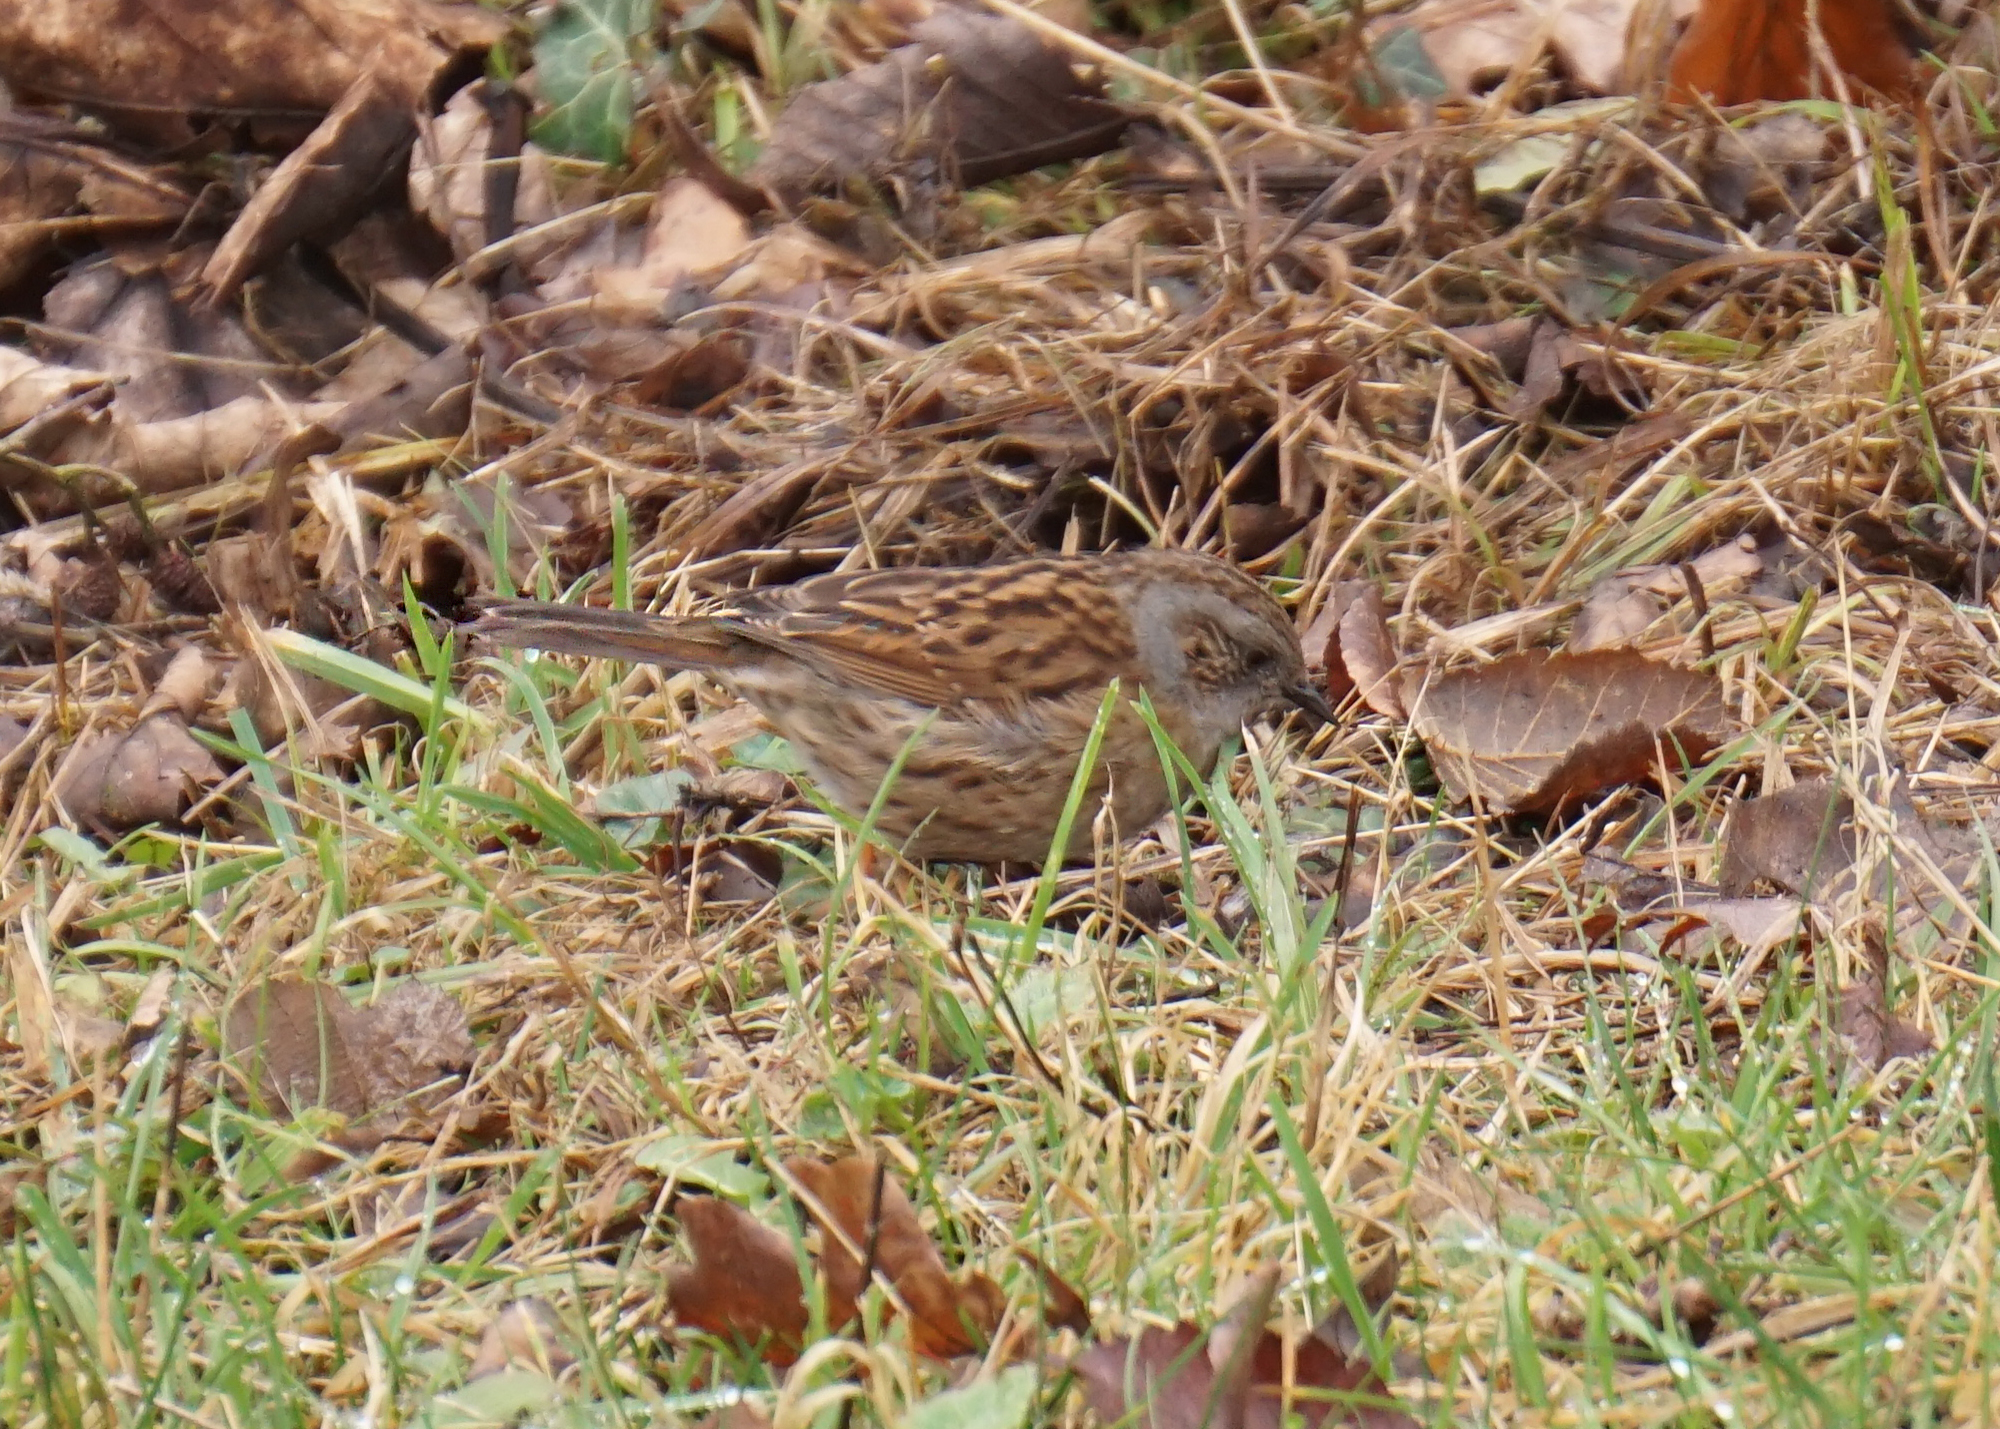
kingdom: Animalia
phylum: Chordata
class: Aves
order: Passeriformes
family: Prunellidae
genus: Prunella
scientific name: Prunella modularis
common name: Dunnock
